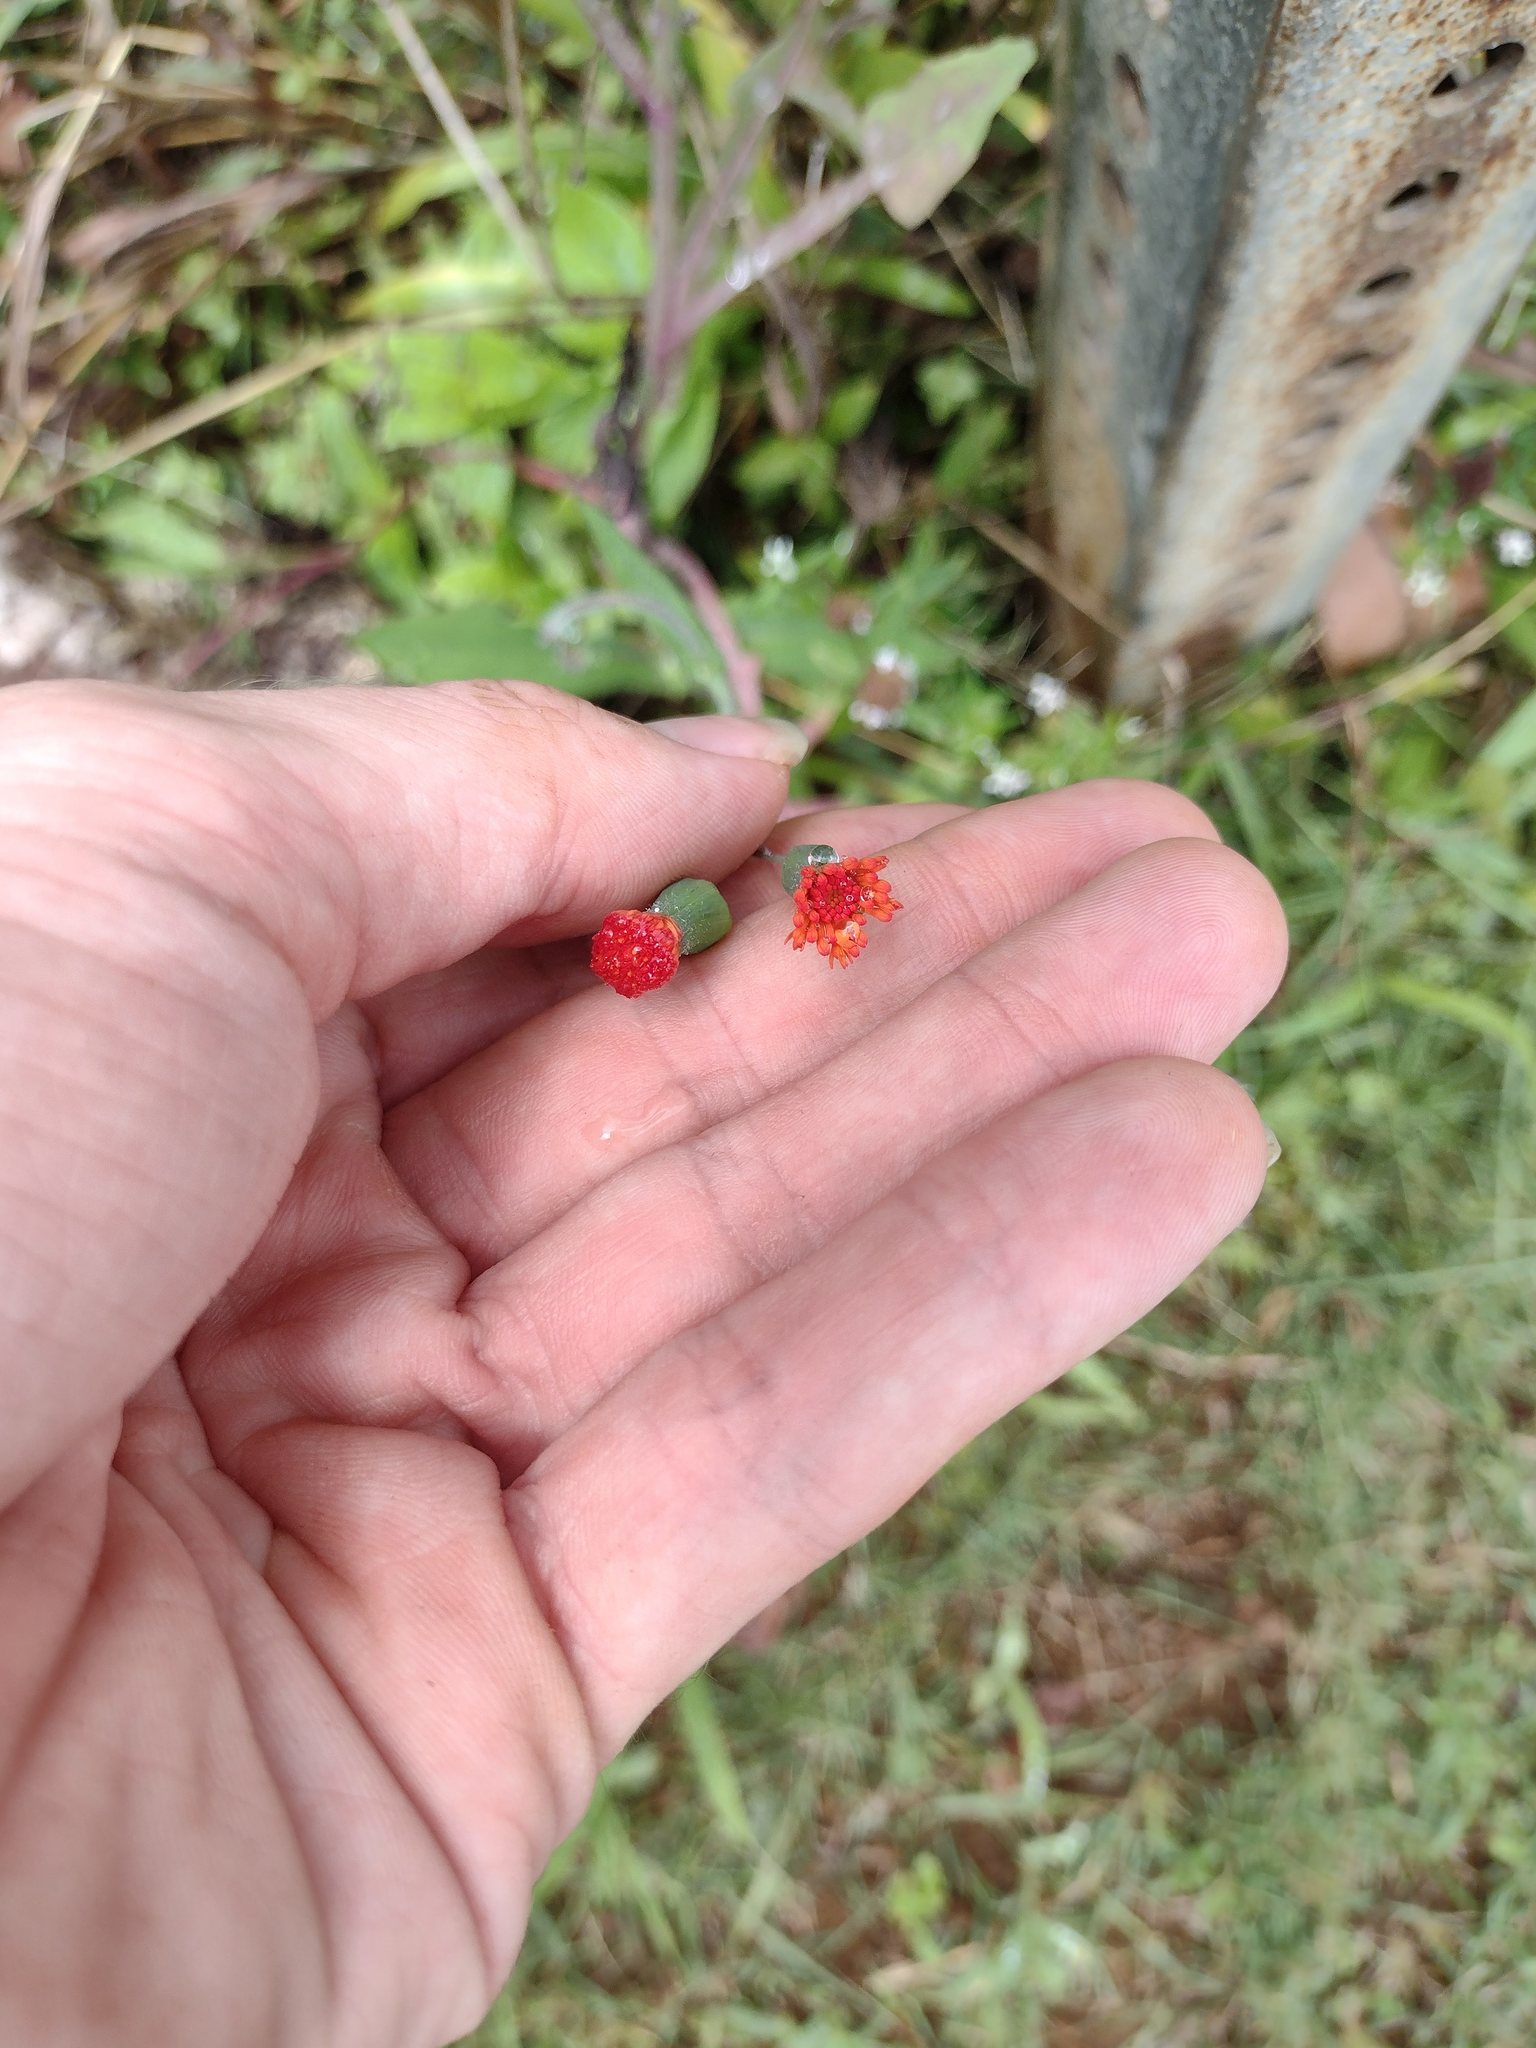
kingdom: Plantae
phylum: Tracheophyta
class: Magnoliopsida
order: Asterales
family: Asteraceae
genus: Emilia
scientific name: Emilia fosbergii
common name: Florida tasselflower
